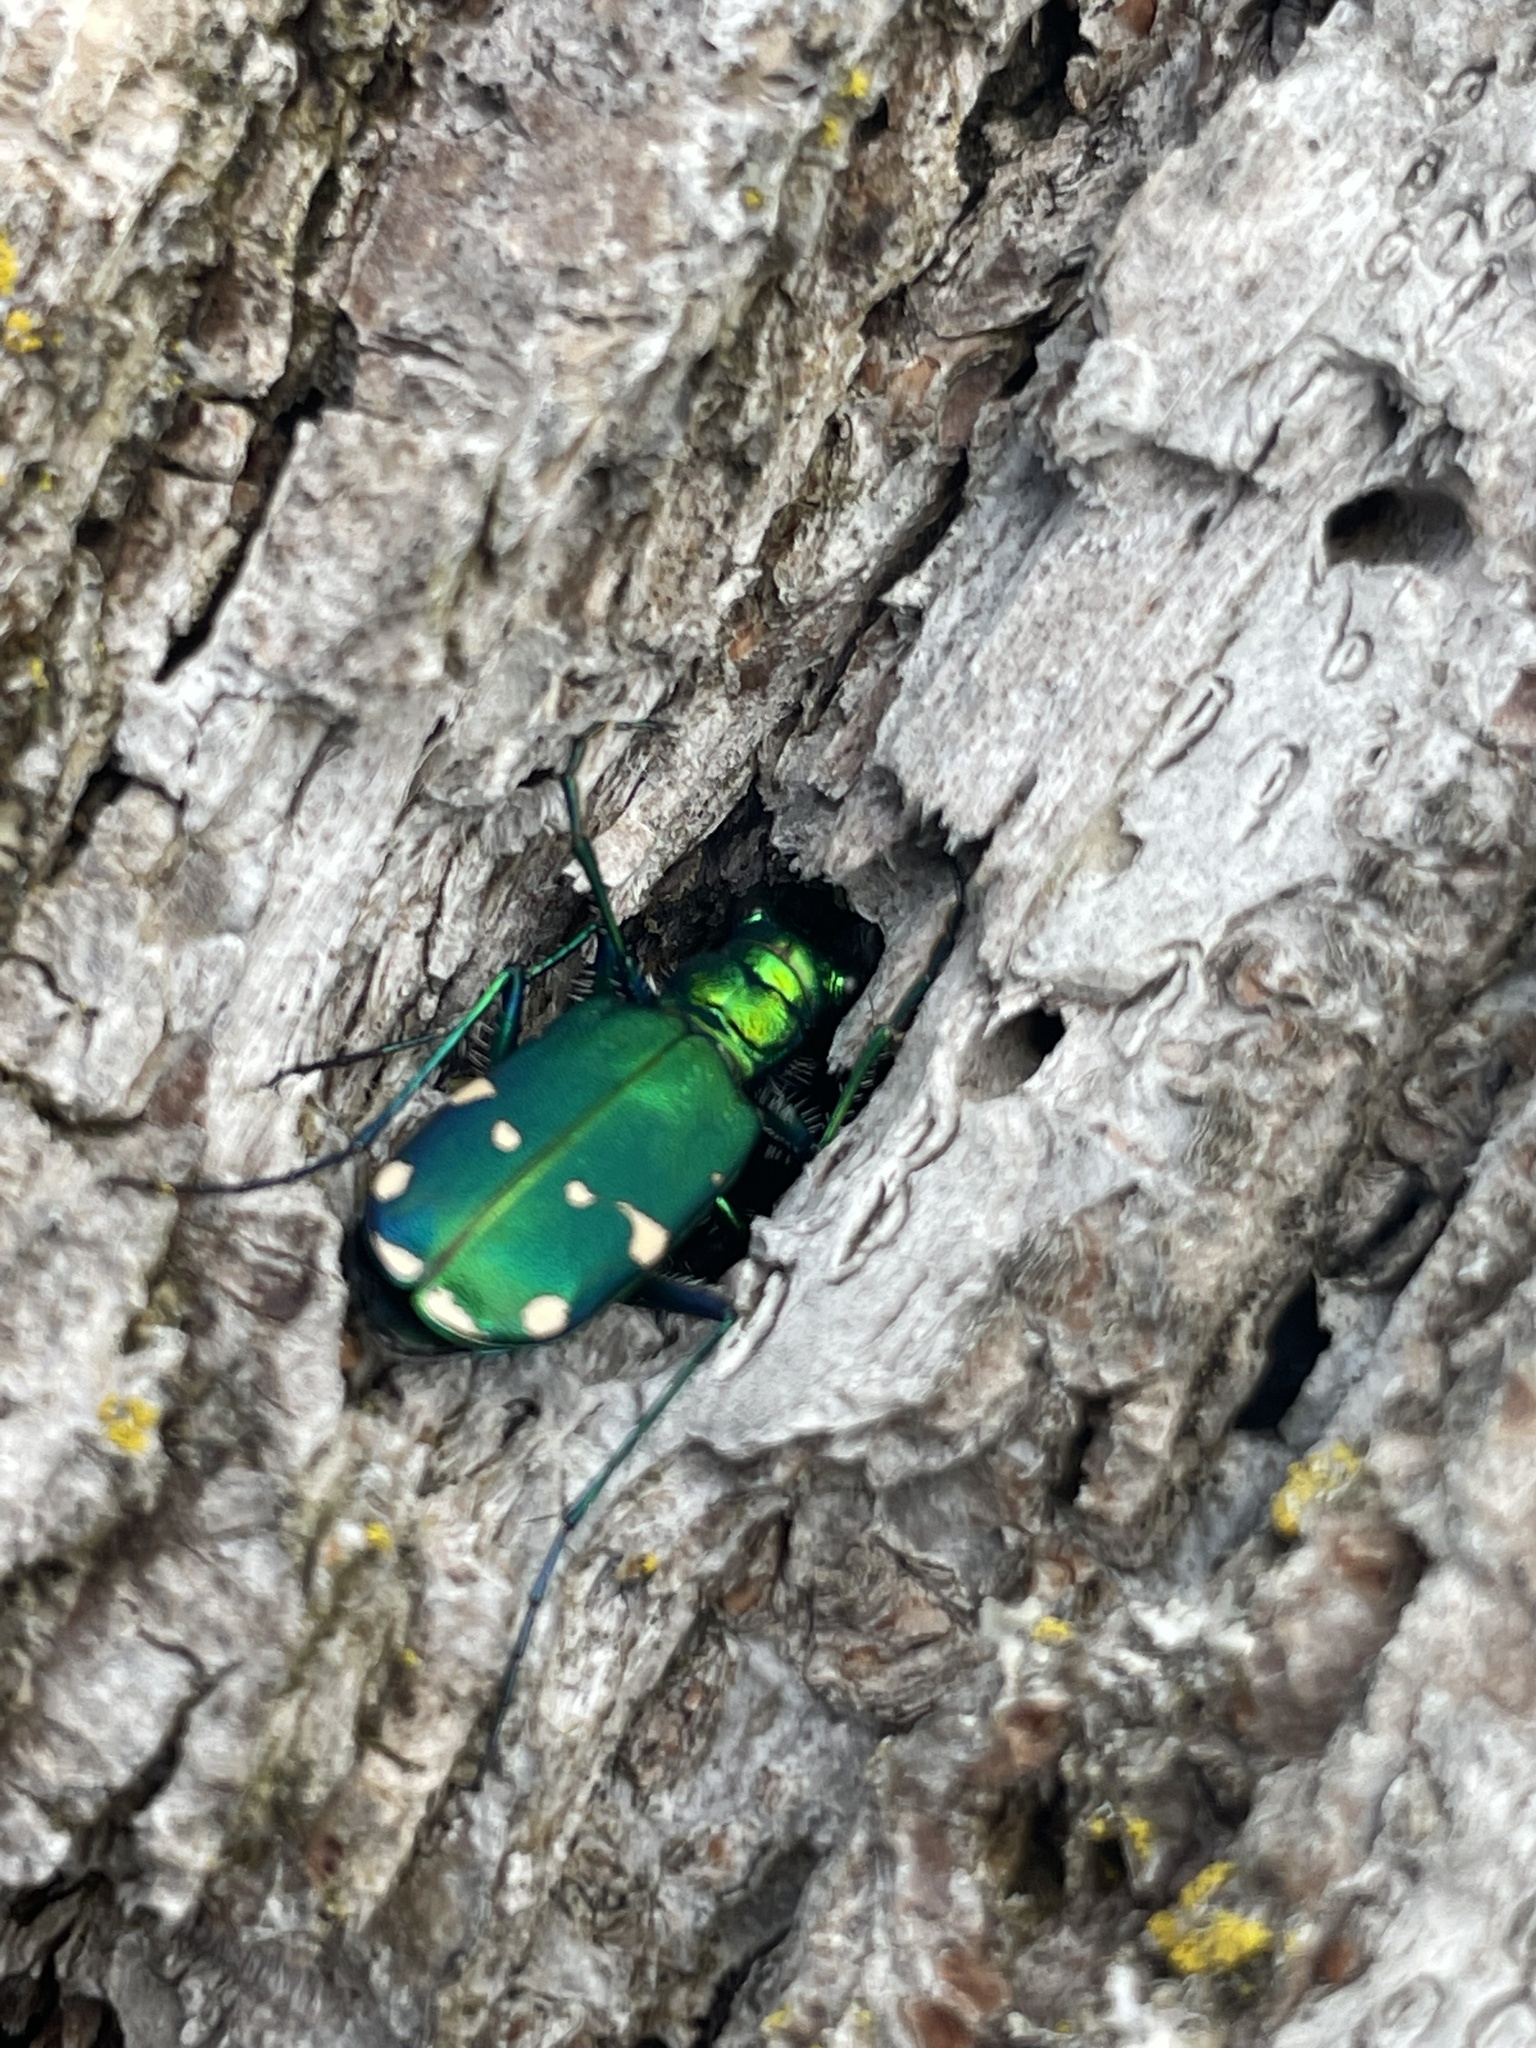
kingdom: Animalia
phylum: Arthropoda
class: Insecta
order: Coleoptera
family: Carabidae
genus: Cicindela
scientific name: Cicindela sexguttata
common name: Six-spotted tiger beetle
